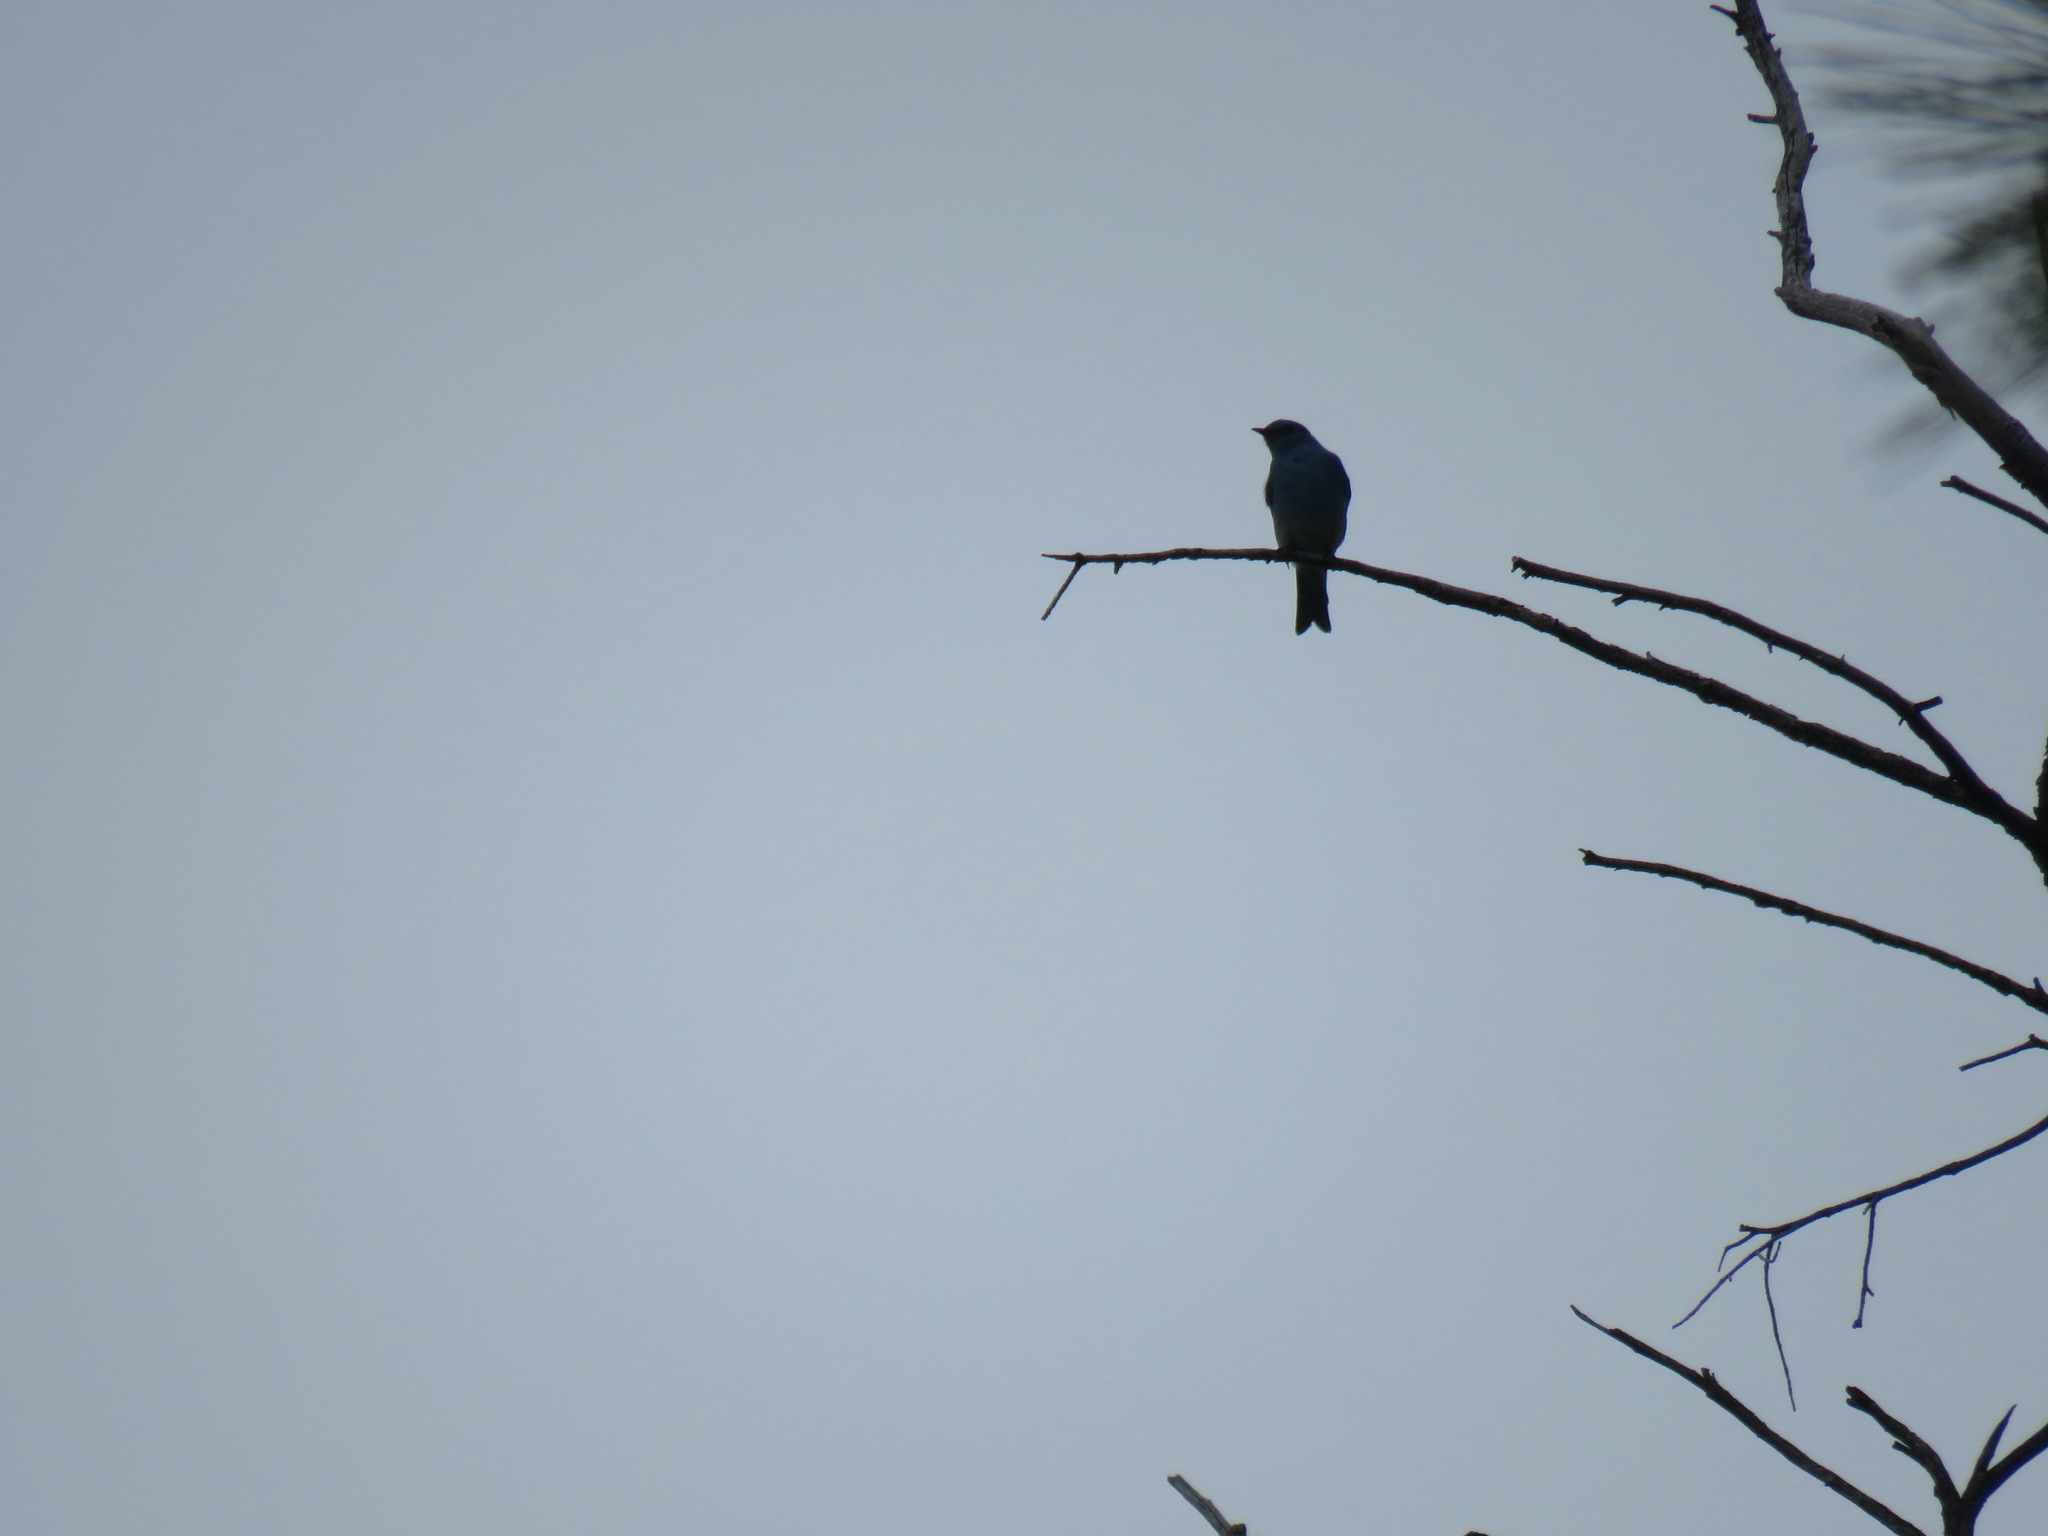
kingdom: Animalia
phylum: Chordata
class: Aves
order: Passeriformes
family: Turdidae
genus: Sialia
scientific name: Sialia currucoides
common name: Mountain bluebird
